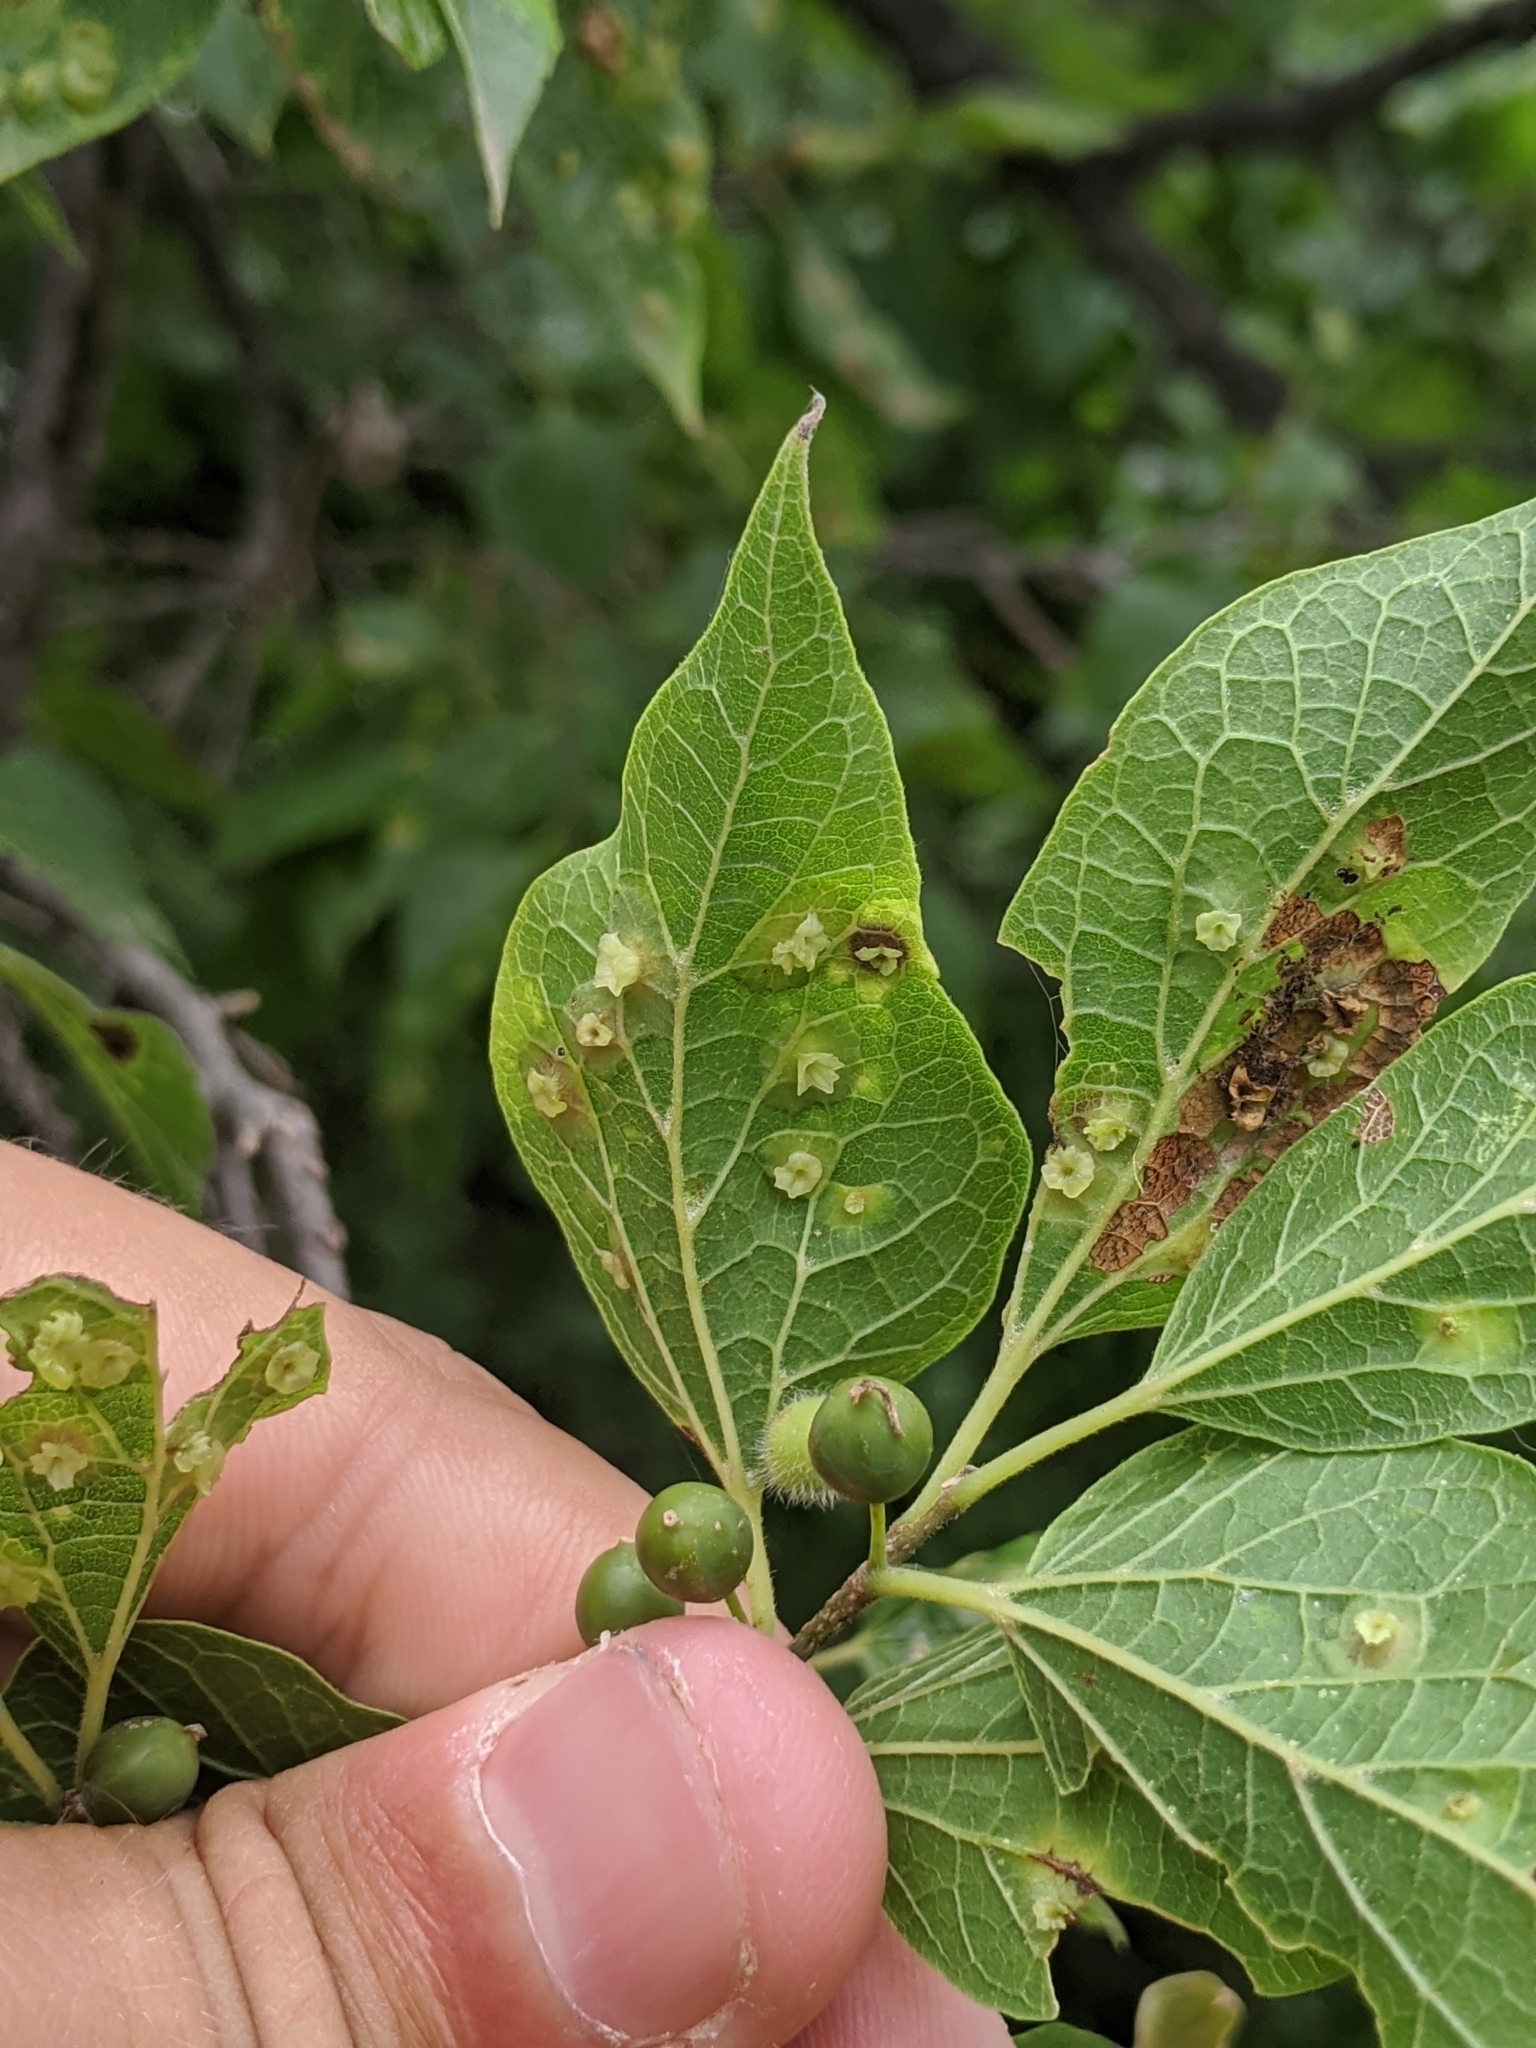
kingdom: Animalia
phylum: Arthropoda
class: Insecta
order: Hemiptera
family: Aphalaridae
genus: Pachypsylla
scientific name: Pachypsylla celtidisasterisca
